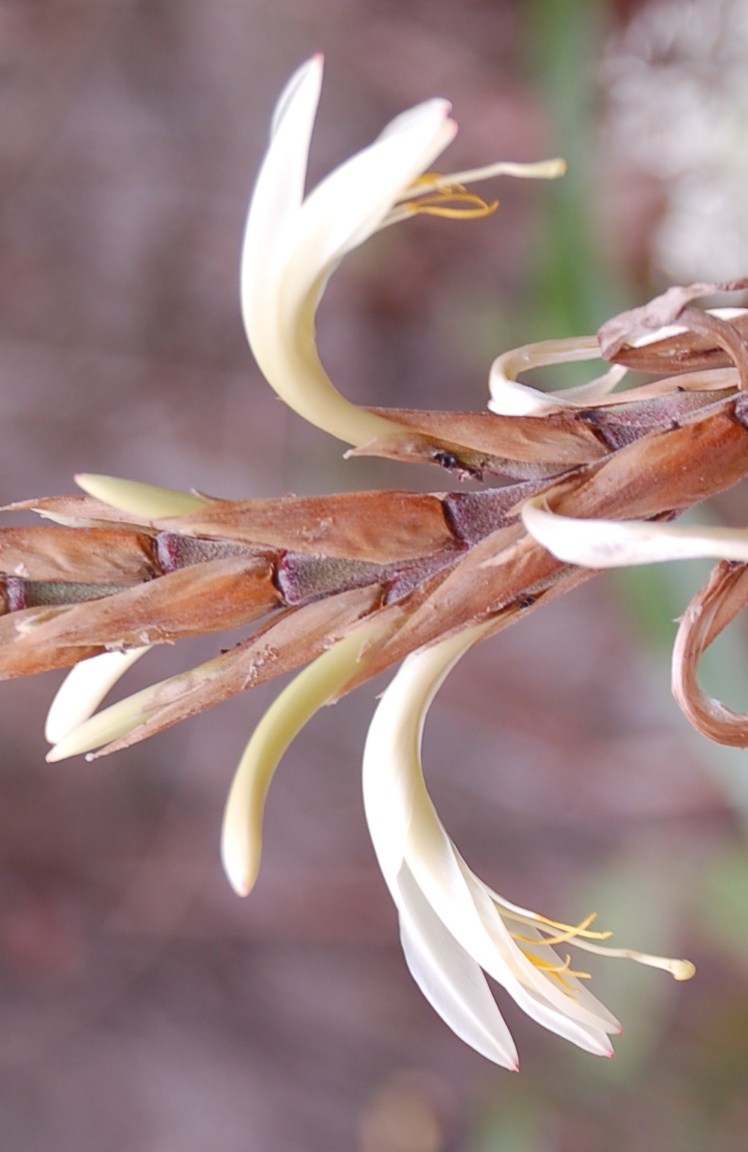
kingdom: Plantae
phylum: Tracheophyta
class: Liliopsida
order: Poales
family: Bromeliaceae
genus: Pitcairnia
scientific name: Pitcairnia recurvata
